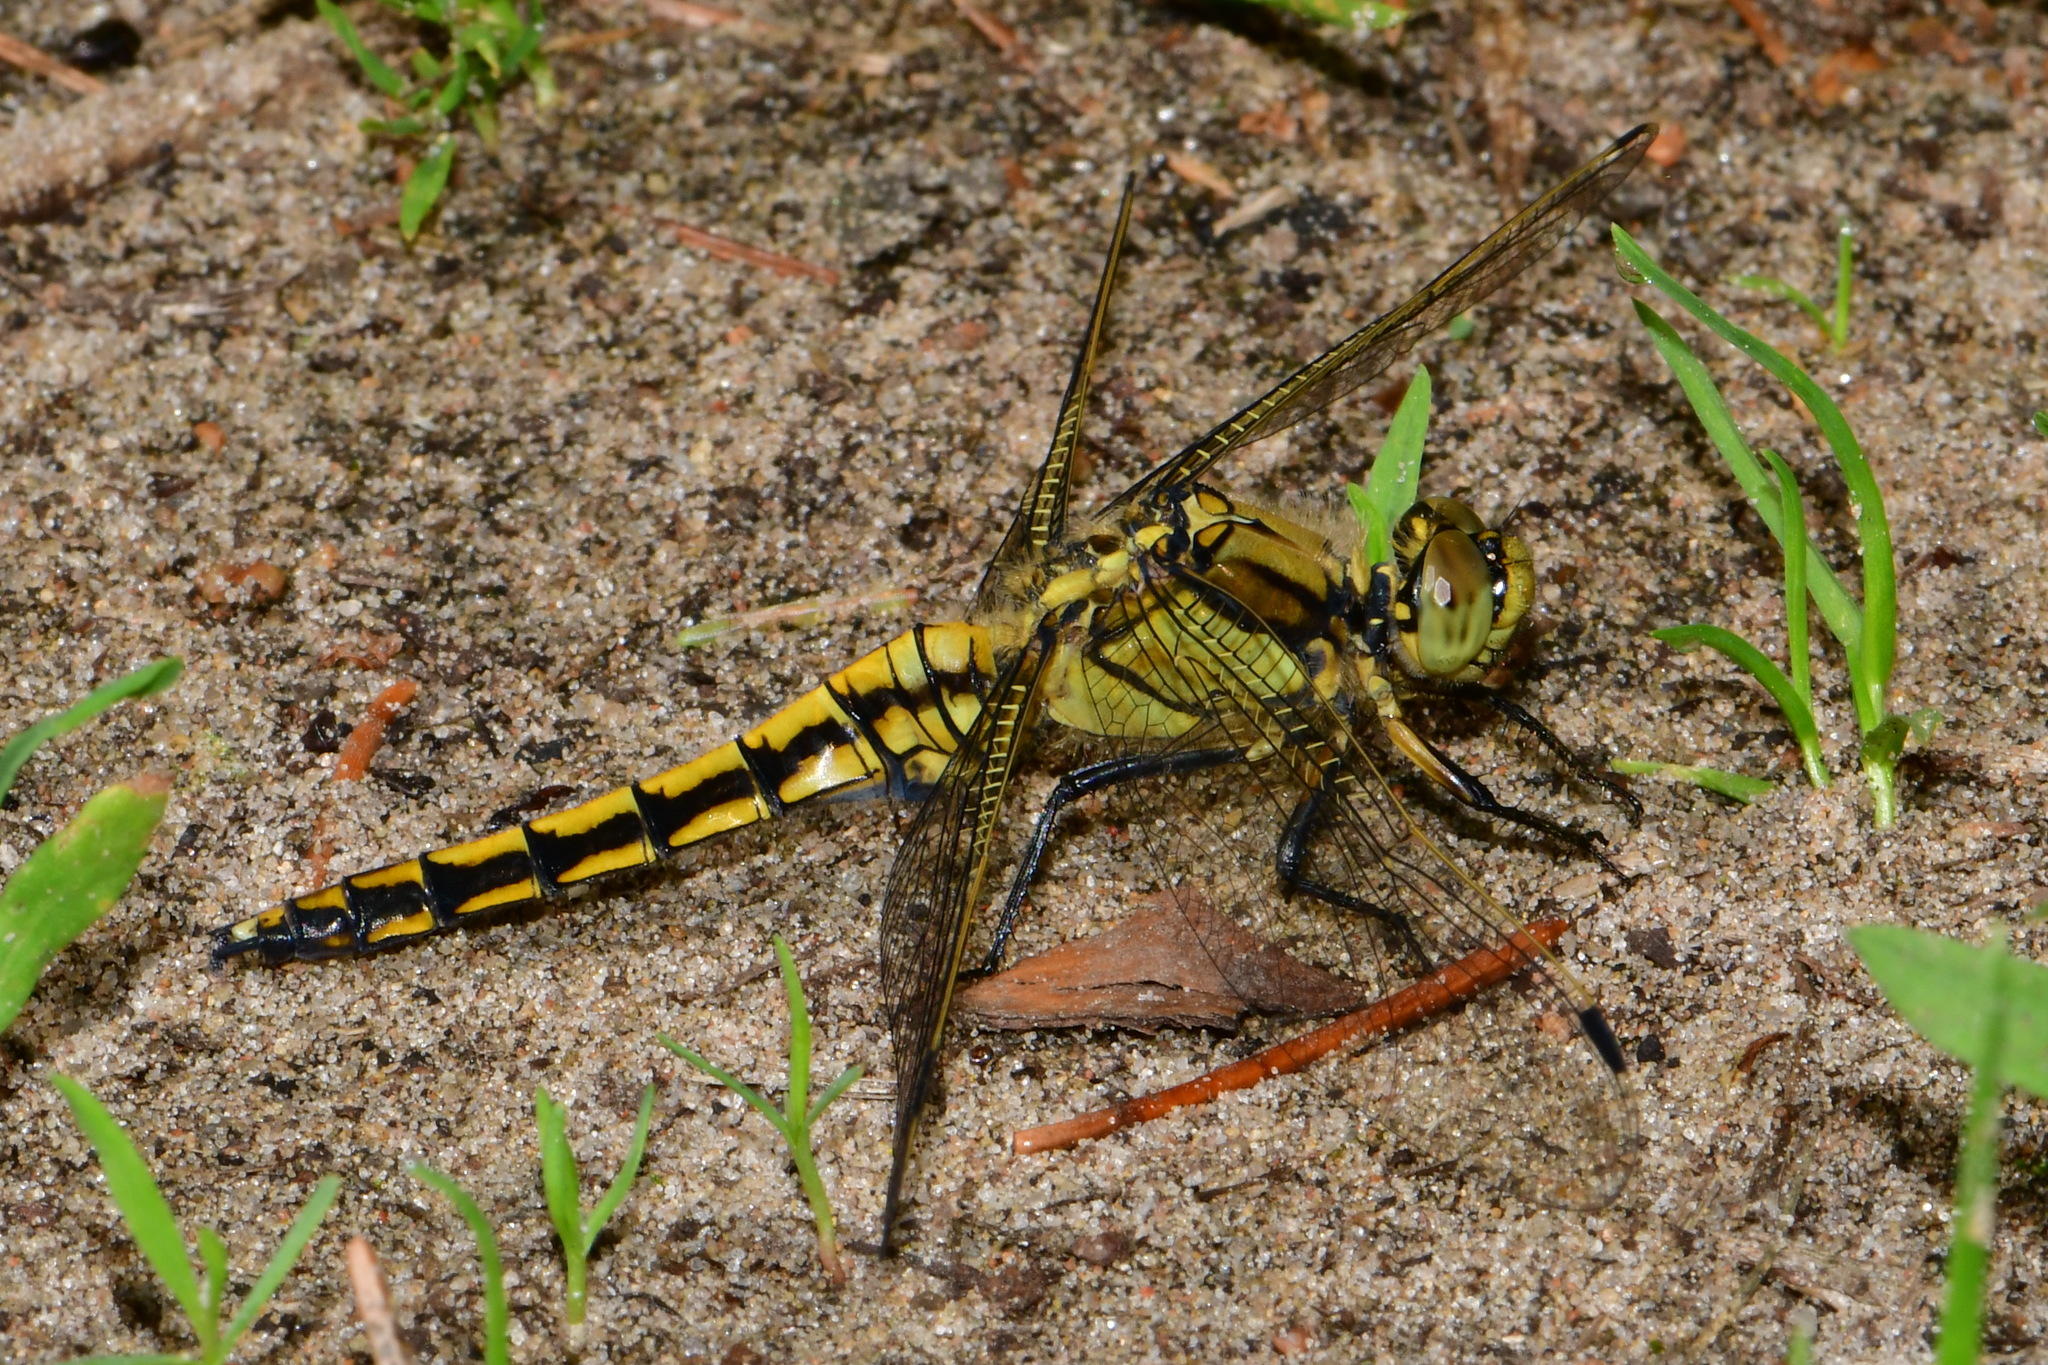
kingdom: Animalia
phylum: Arthropoda
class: Insecta
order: Odonata
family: Libellulidae
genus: Orthetrum
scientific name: Orthetrum cancellatum
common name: Black-tailed skimmer
